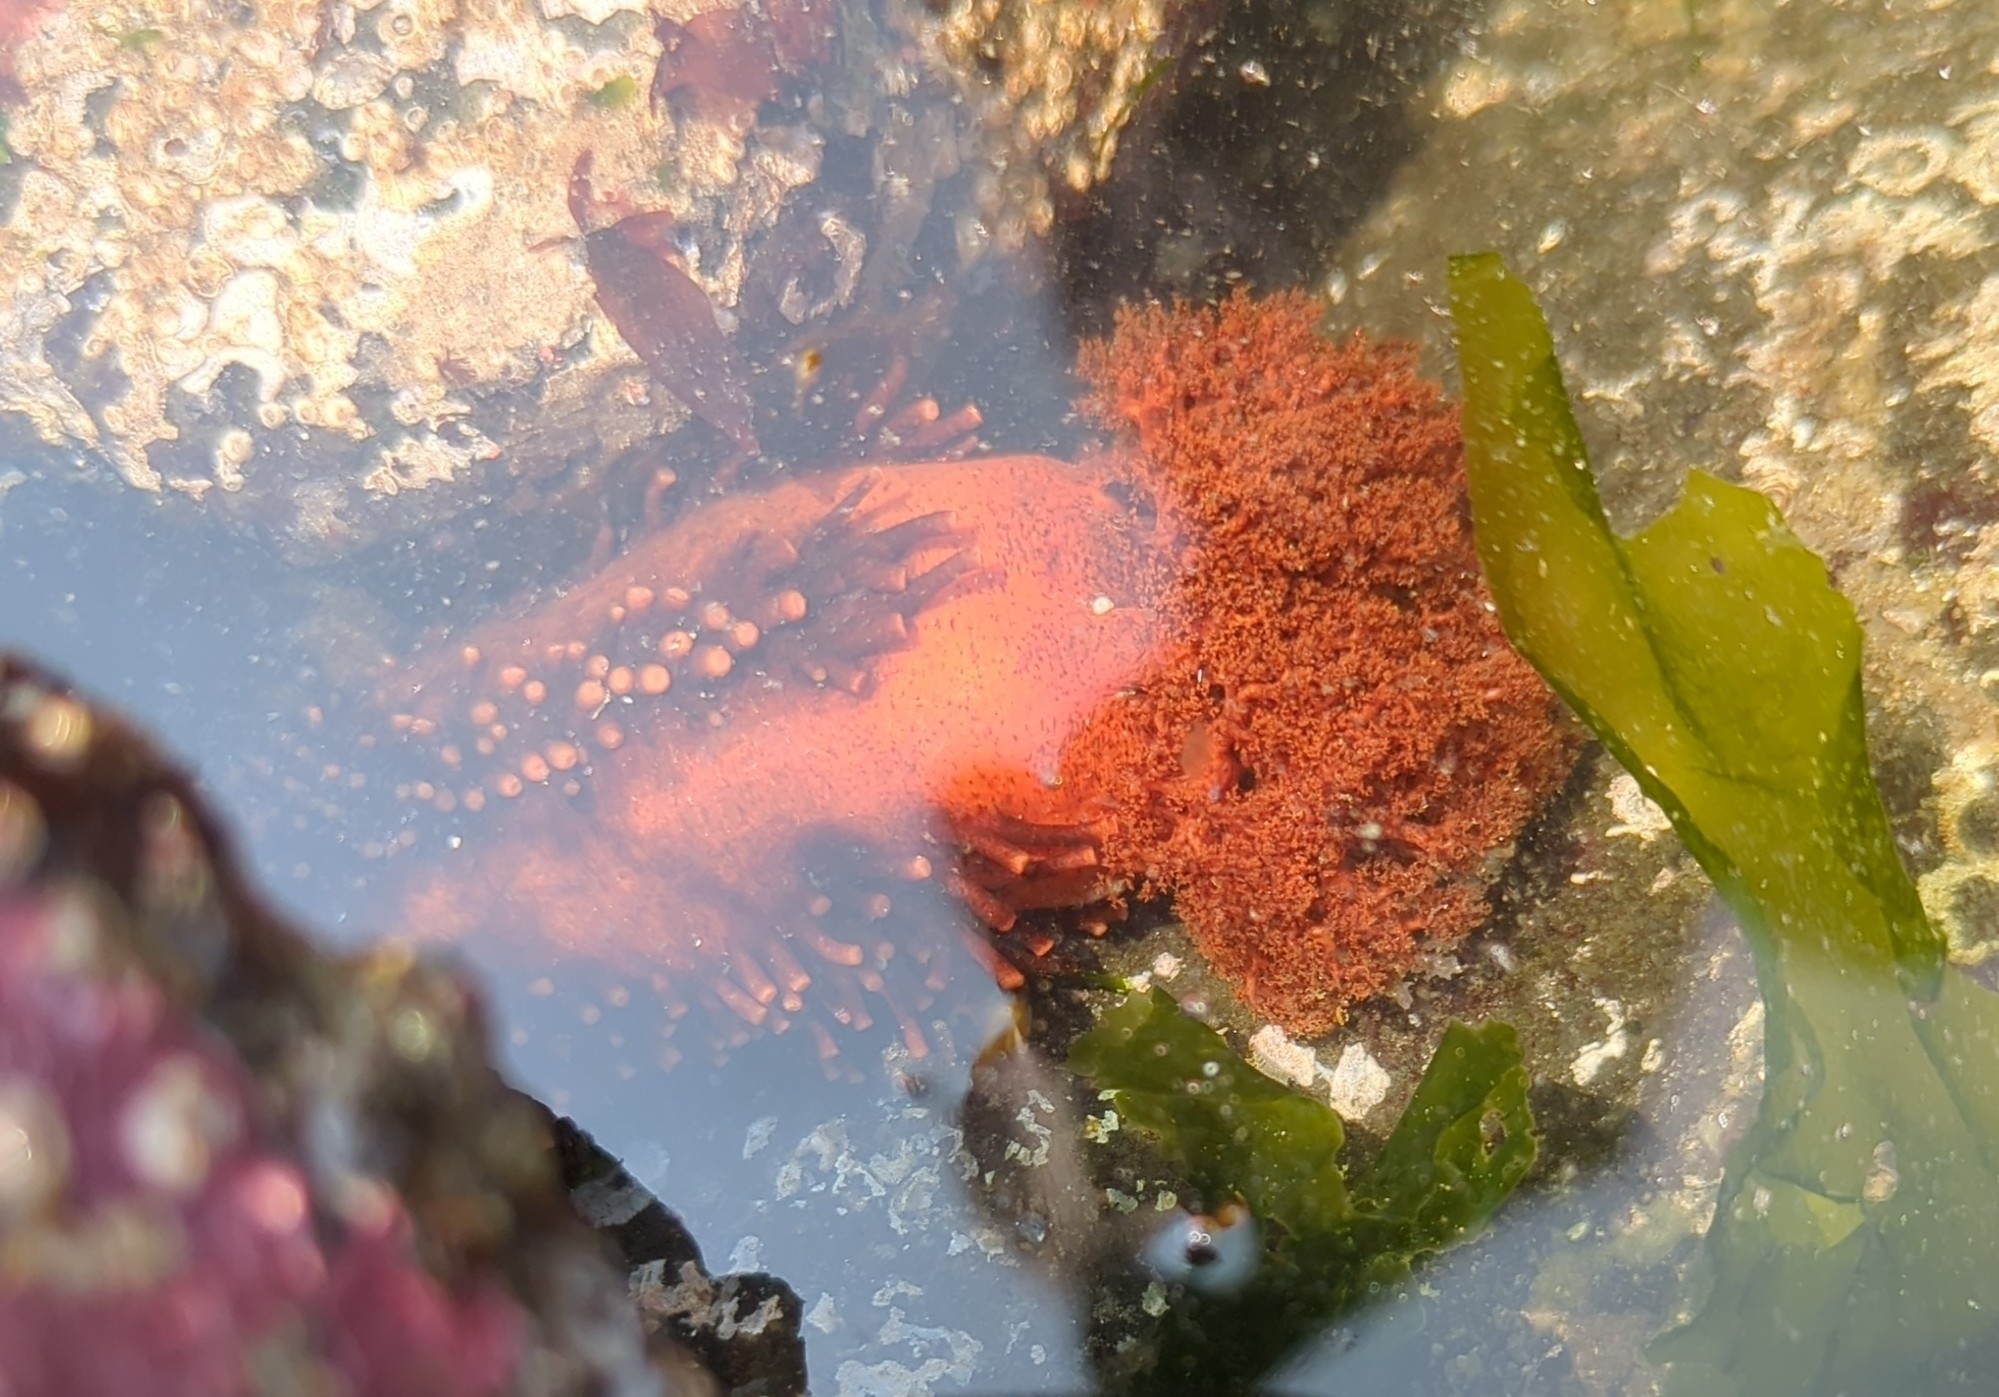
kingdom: Animalia
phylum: Echinodermata
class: Holothuroidea
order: Dendrochirotida
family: Cucumariidae
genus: Cucumaria
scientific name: Cucumaria miniata
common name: Orange sea cucumber
